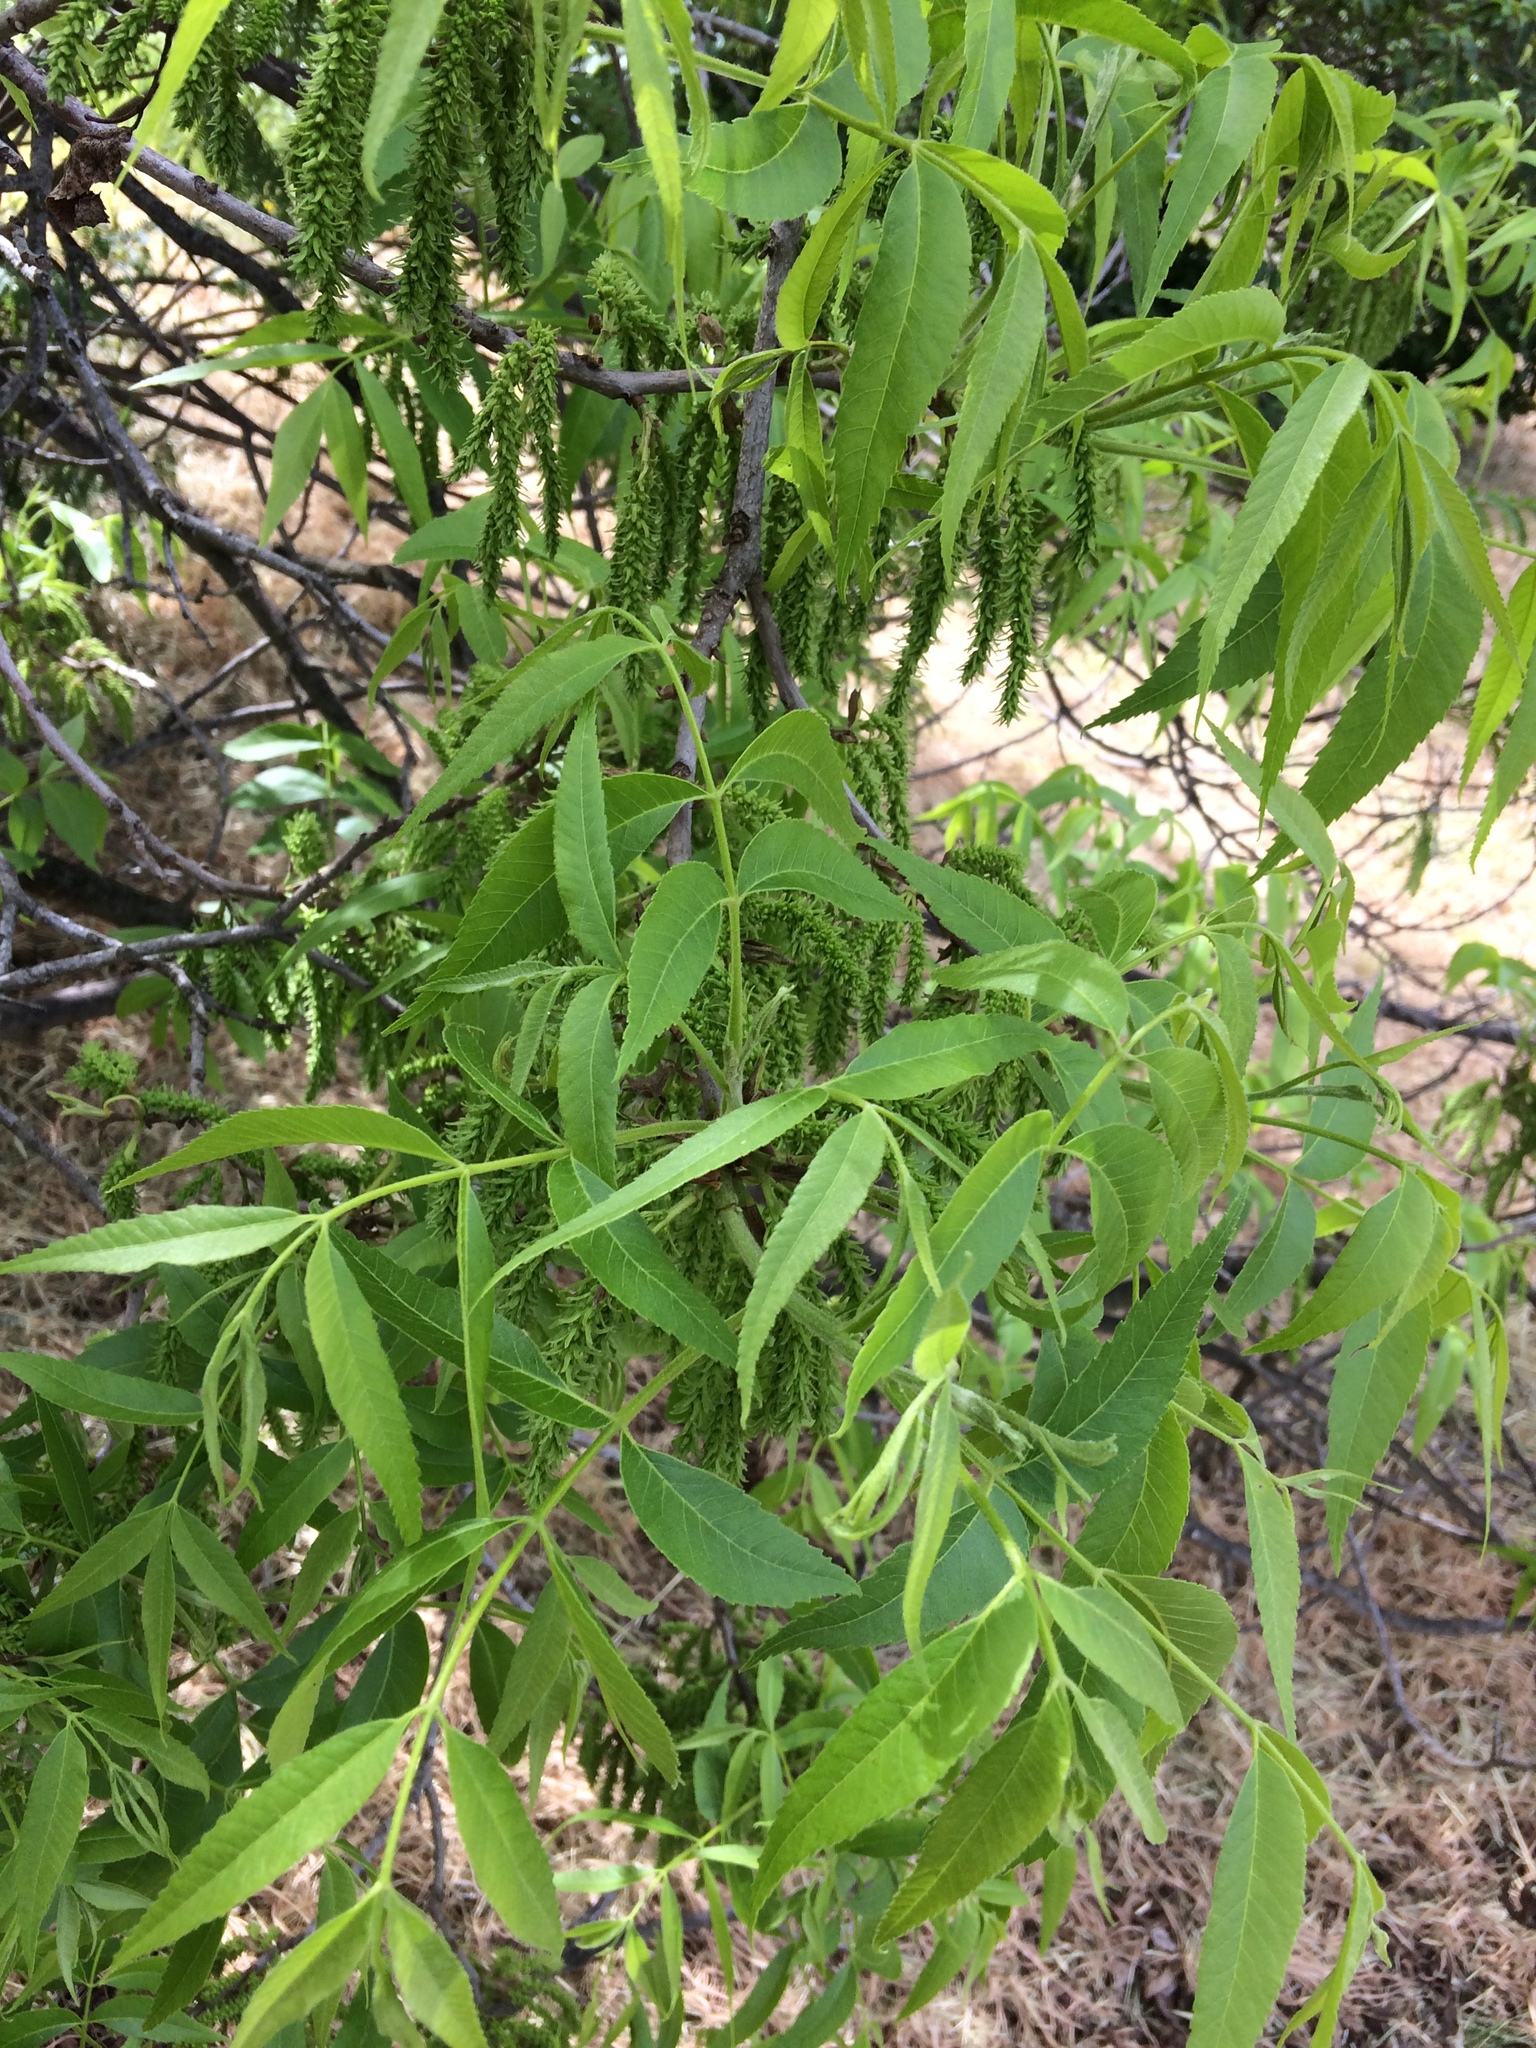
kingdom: Plantae
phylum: Tracheophyta
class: Magnoliopsida
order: Fagales
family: Juglandaceae
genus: Juglans
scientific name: Juglans californica
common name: Southern california black walnut
